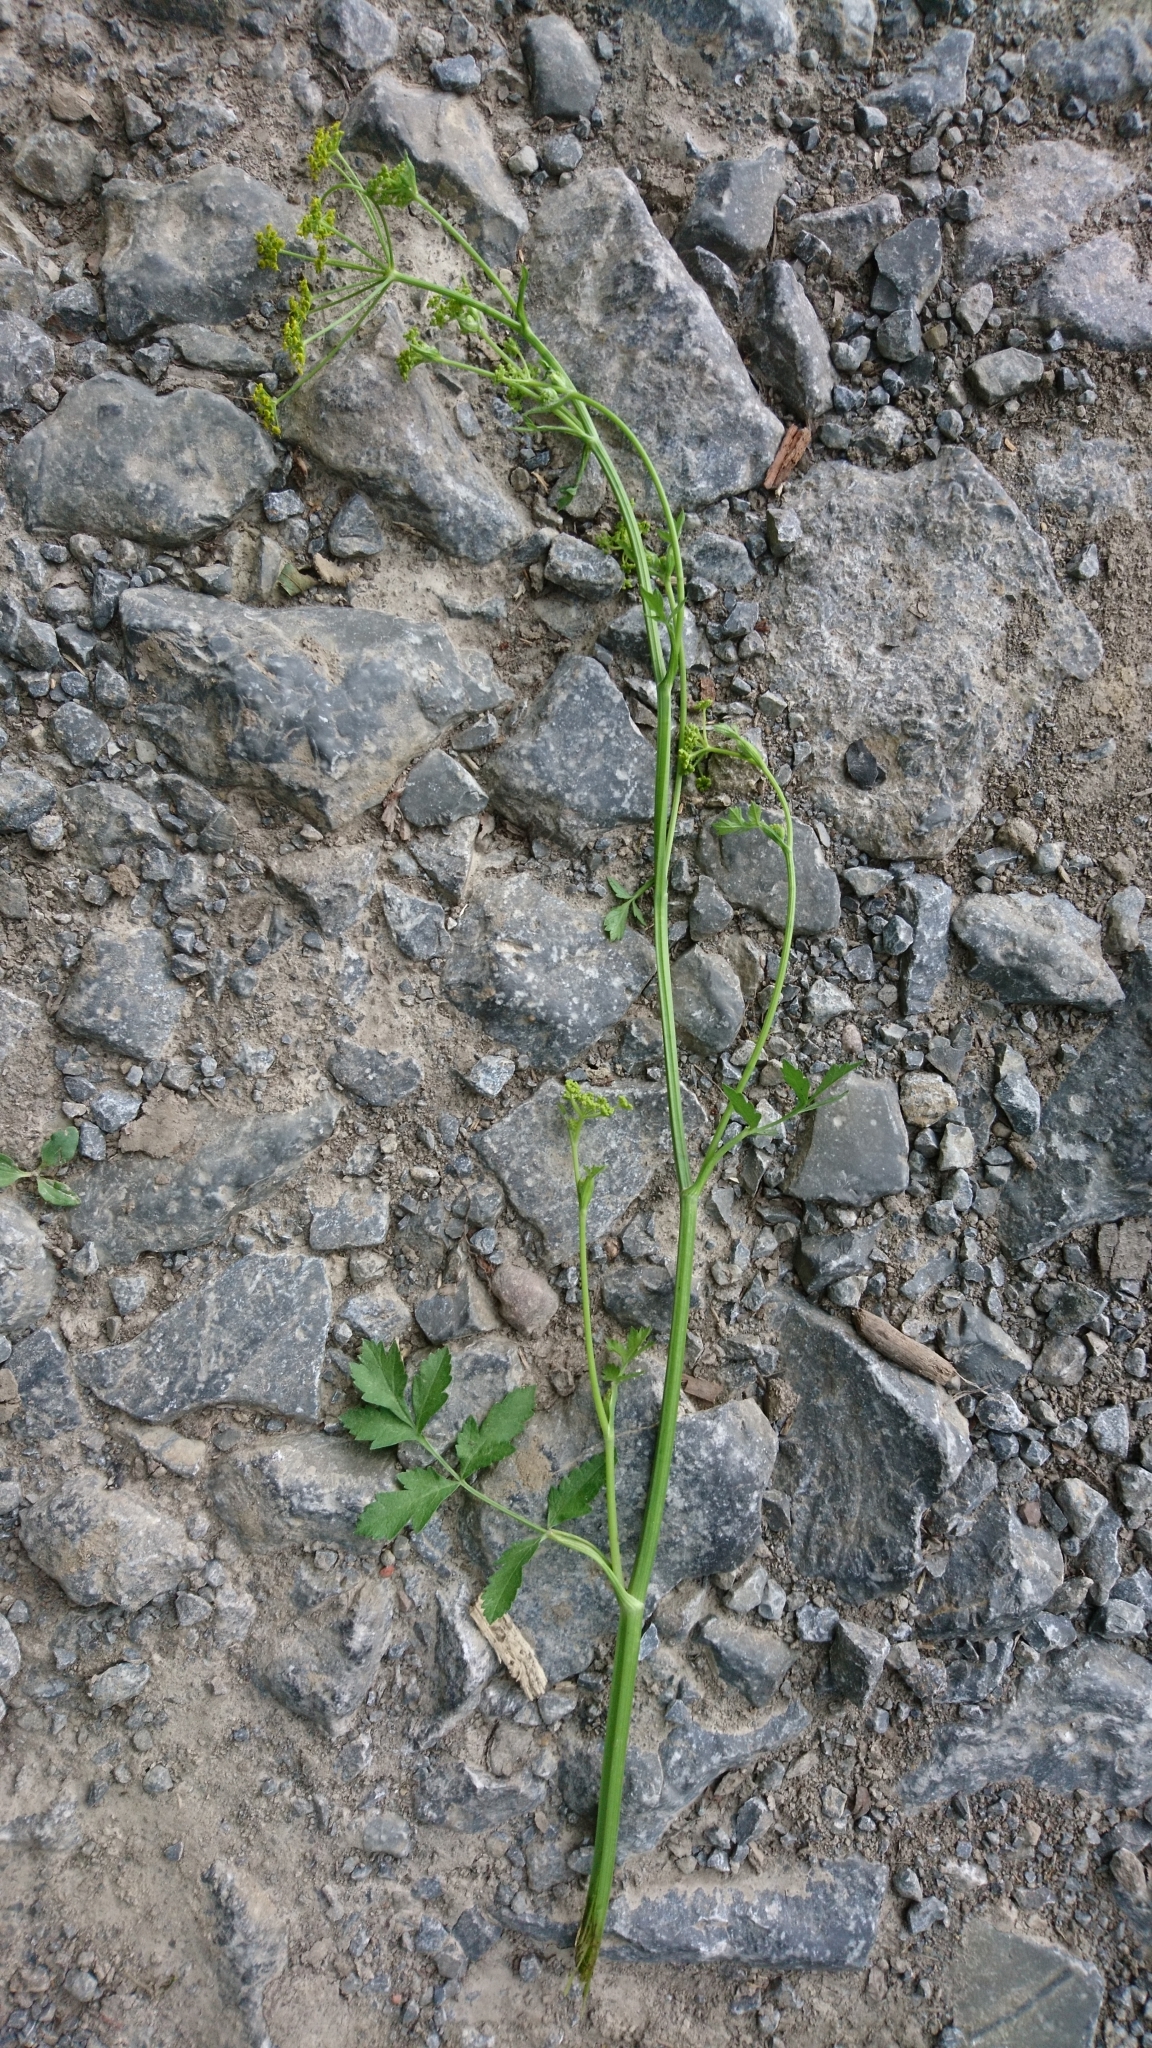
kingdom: Plantae
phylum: Tracheophyta
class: Magnoliopsida
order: Apiales
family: Apiaceae
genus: Pastinaca
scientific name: Pastinaca sativa
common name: Wild parsnip
